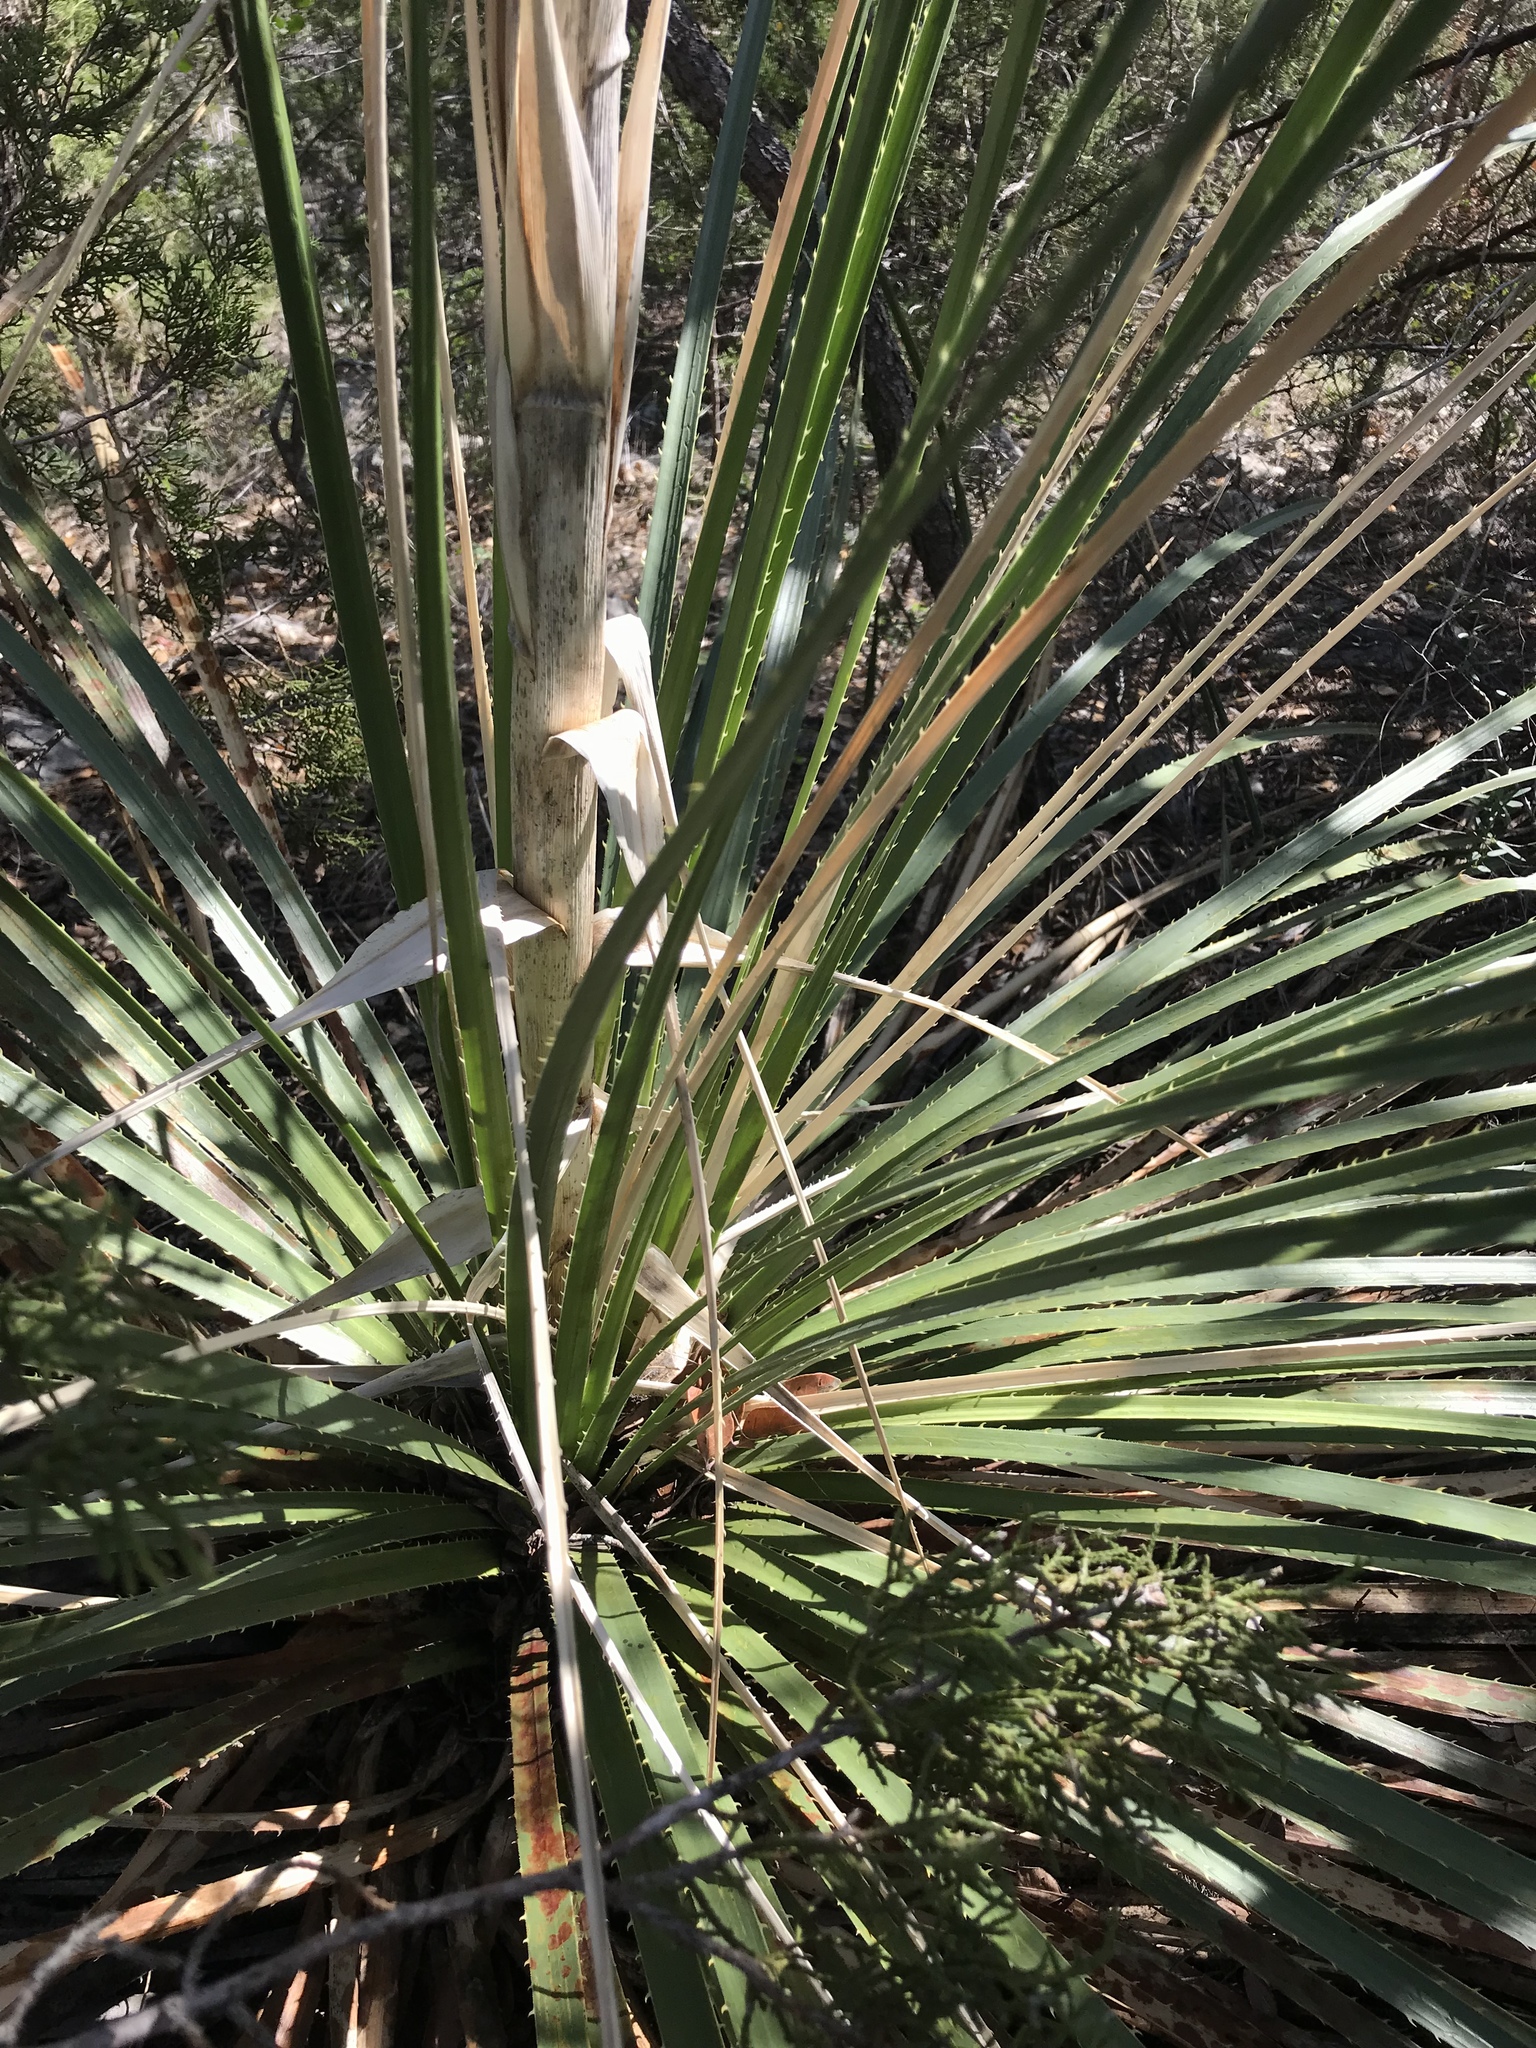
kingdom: Plantae
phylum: Tracheophyta
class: Liliopsida
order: Asparagales
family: Asparagaceae
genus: Dasylirion
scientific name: Dasylirion texanum
